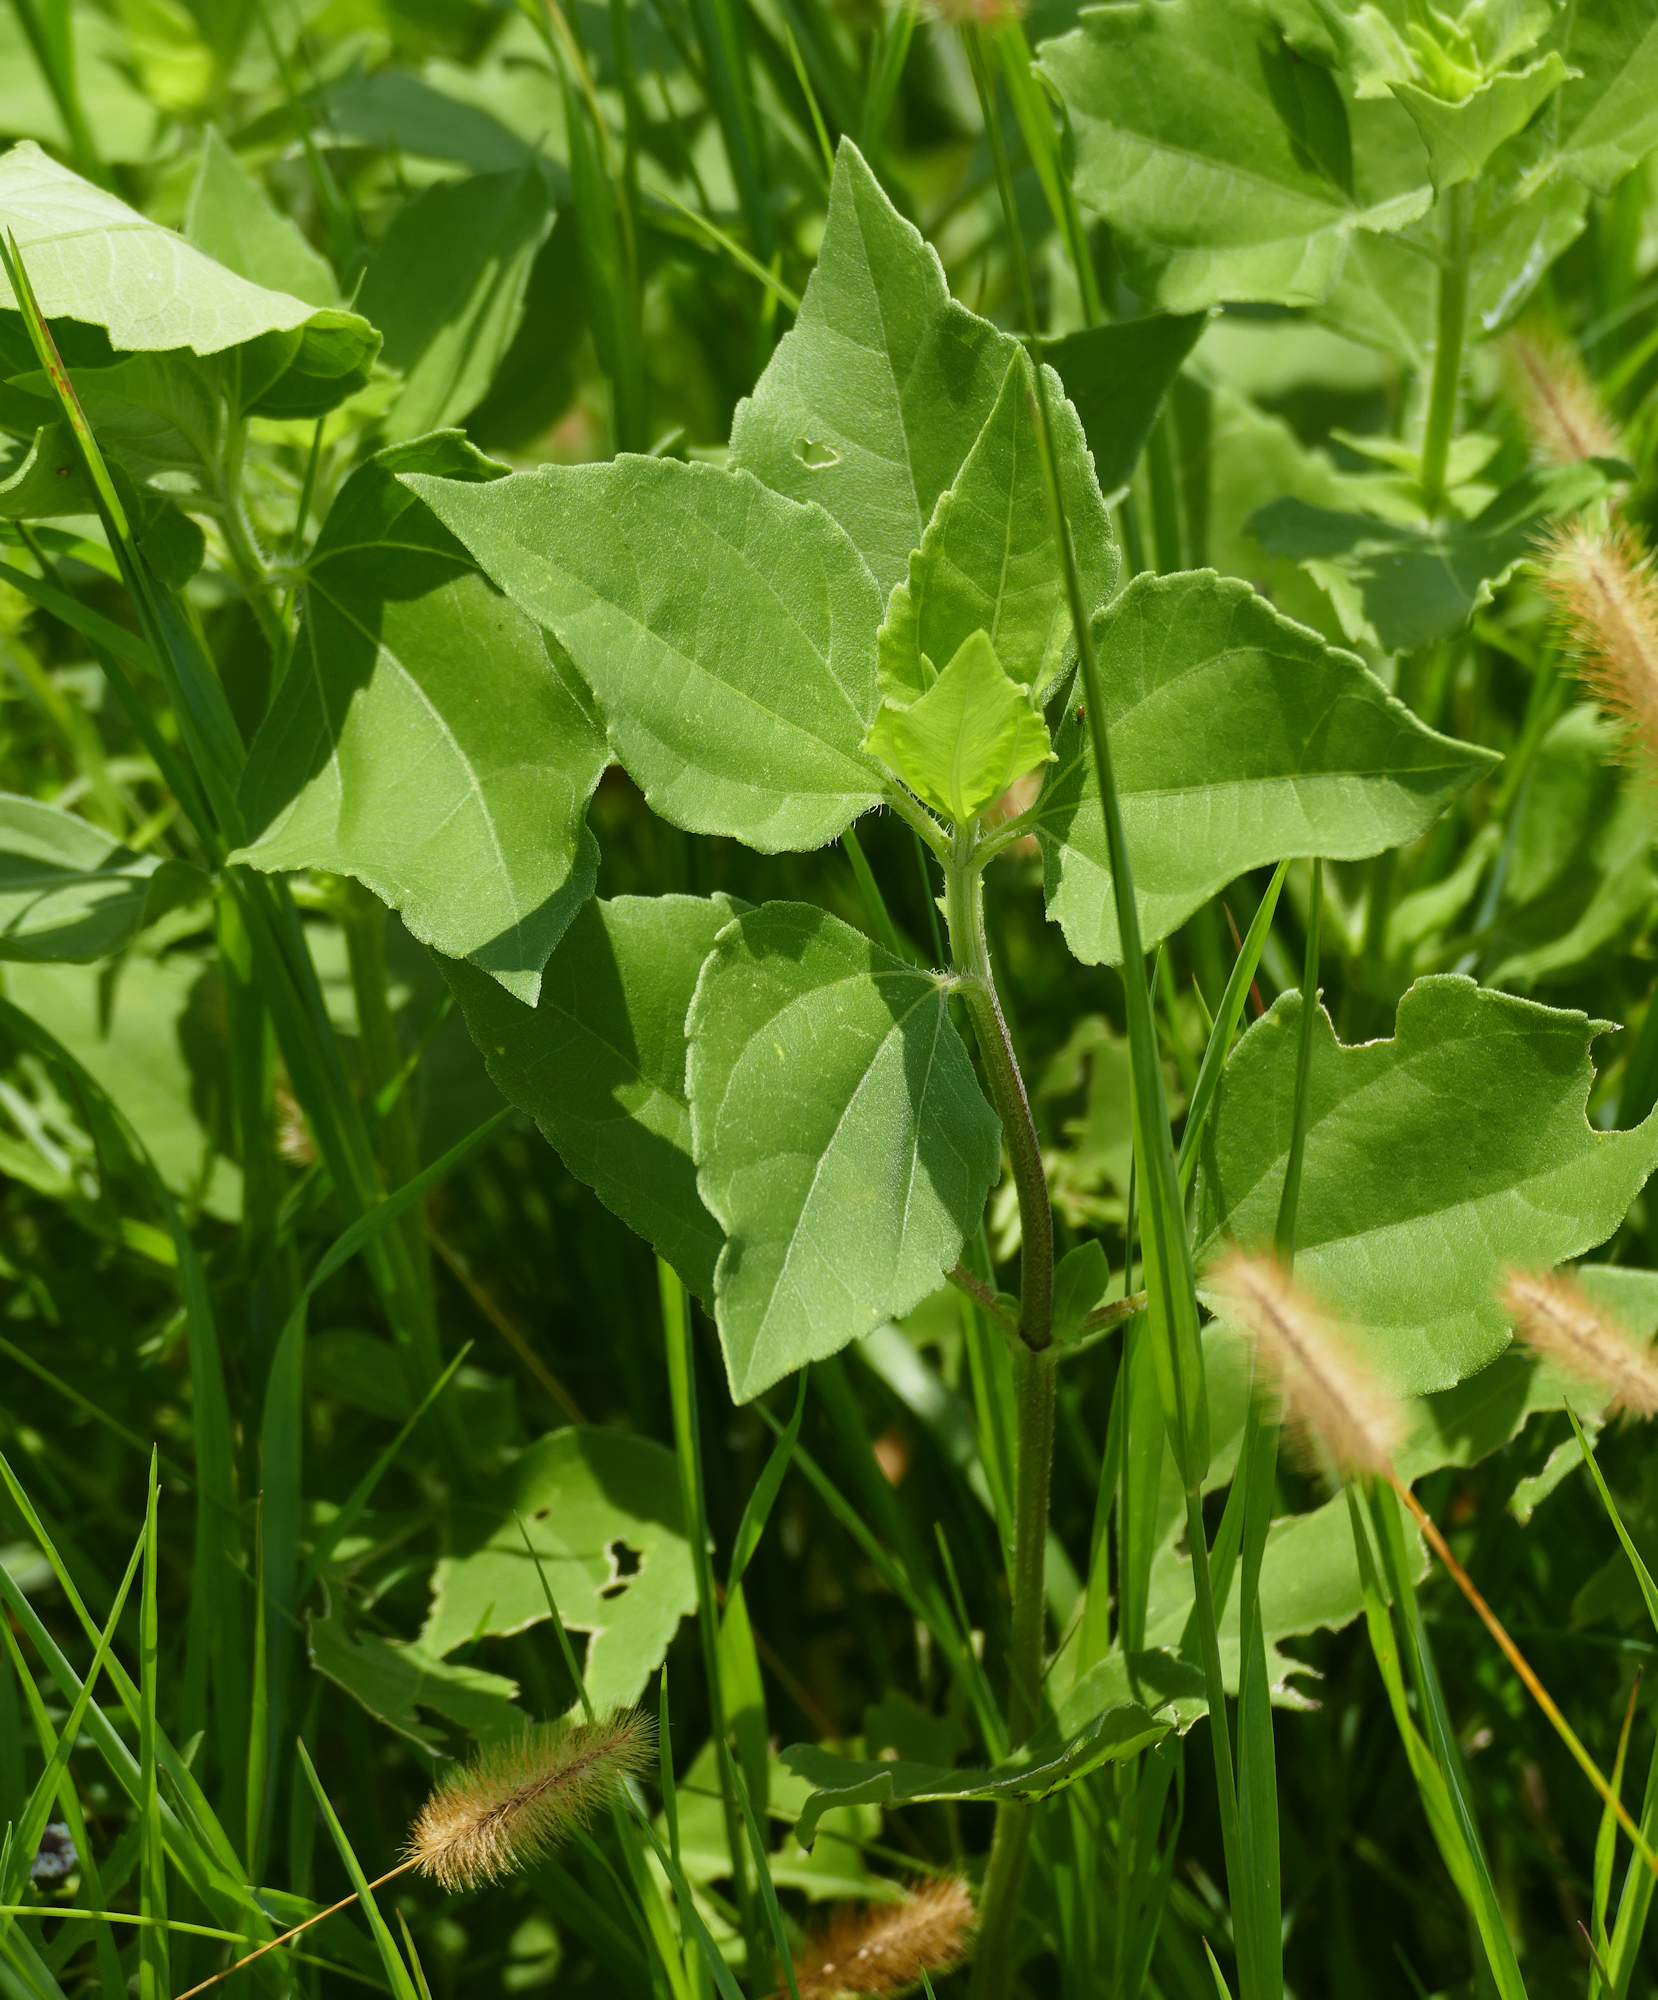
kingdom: Plantae
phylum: Tracheophyta
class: Magnoliopsida
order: Asterales
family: Asteraceae
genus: Iva
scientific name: Iva annua
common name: Marsh-elder
